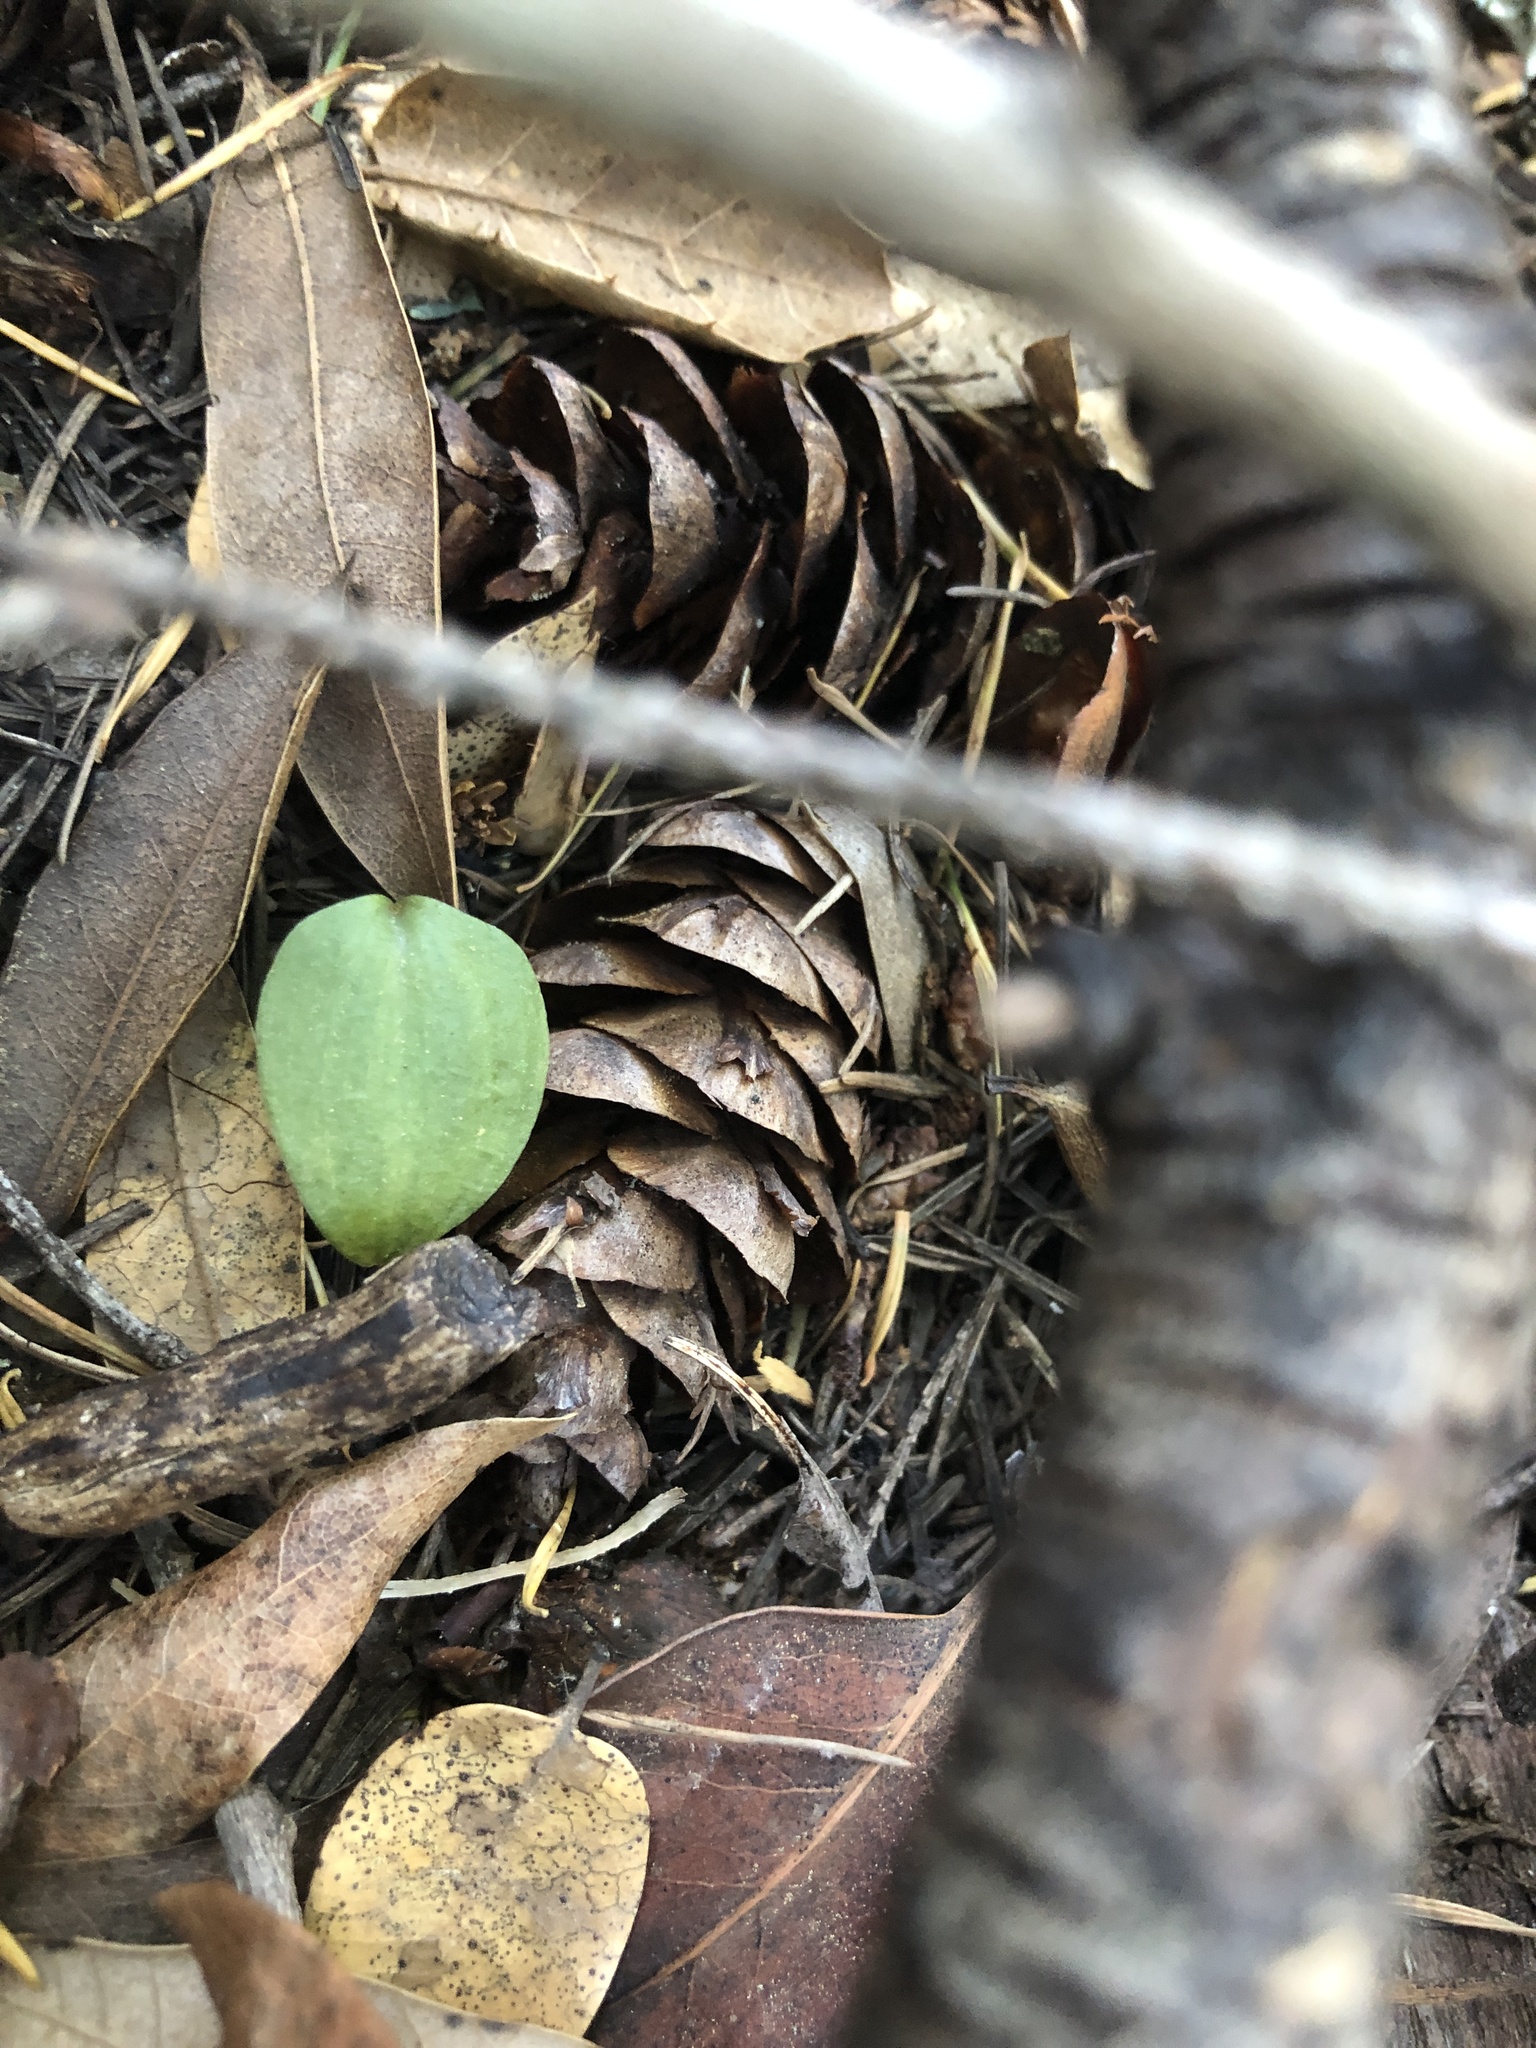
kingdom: Plantae
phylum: Tracheophyta
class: Liliopsida
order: Asparagales
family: Orchidaceae
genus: Calypso
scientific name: Calypso bulbosa
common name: Calypso
